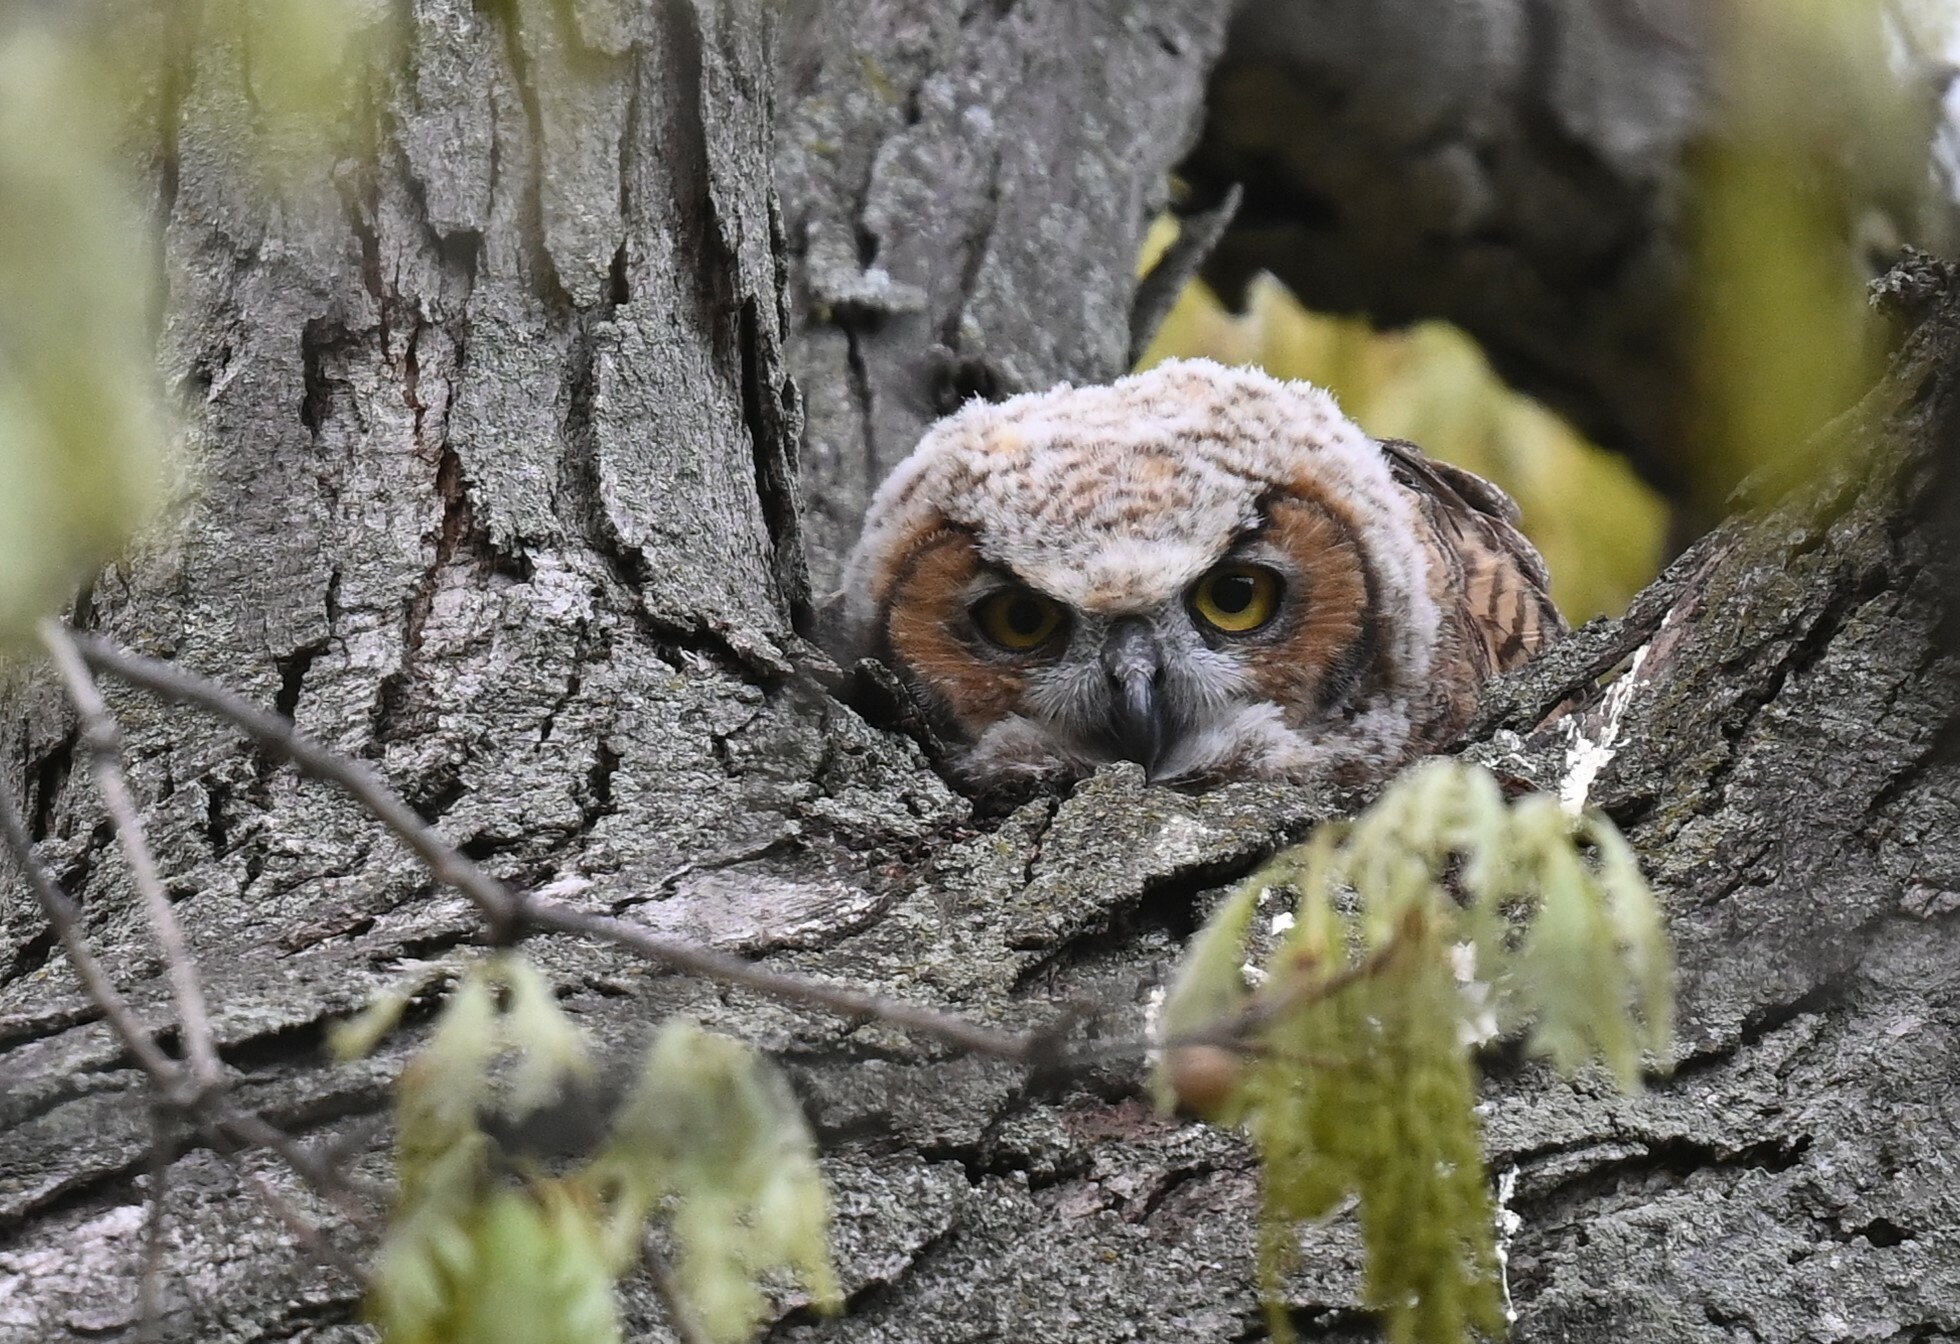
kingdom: Animalia
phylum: Chordata
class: Aves
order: Strigiformes
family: Strigidae
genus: Bubo
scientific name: Bubo virginianus
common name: Great horned owl
